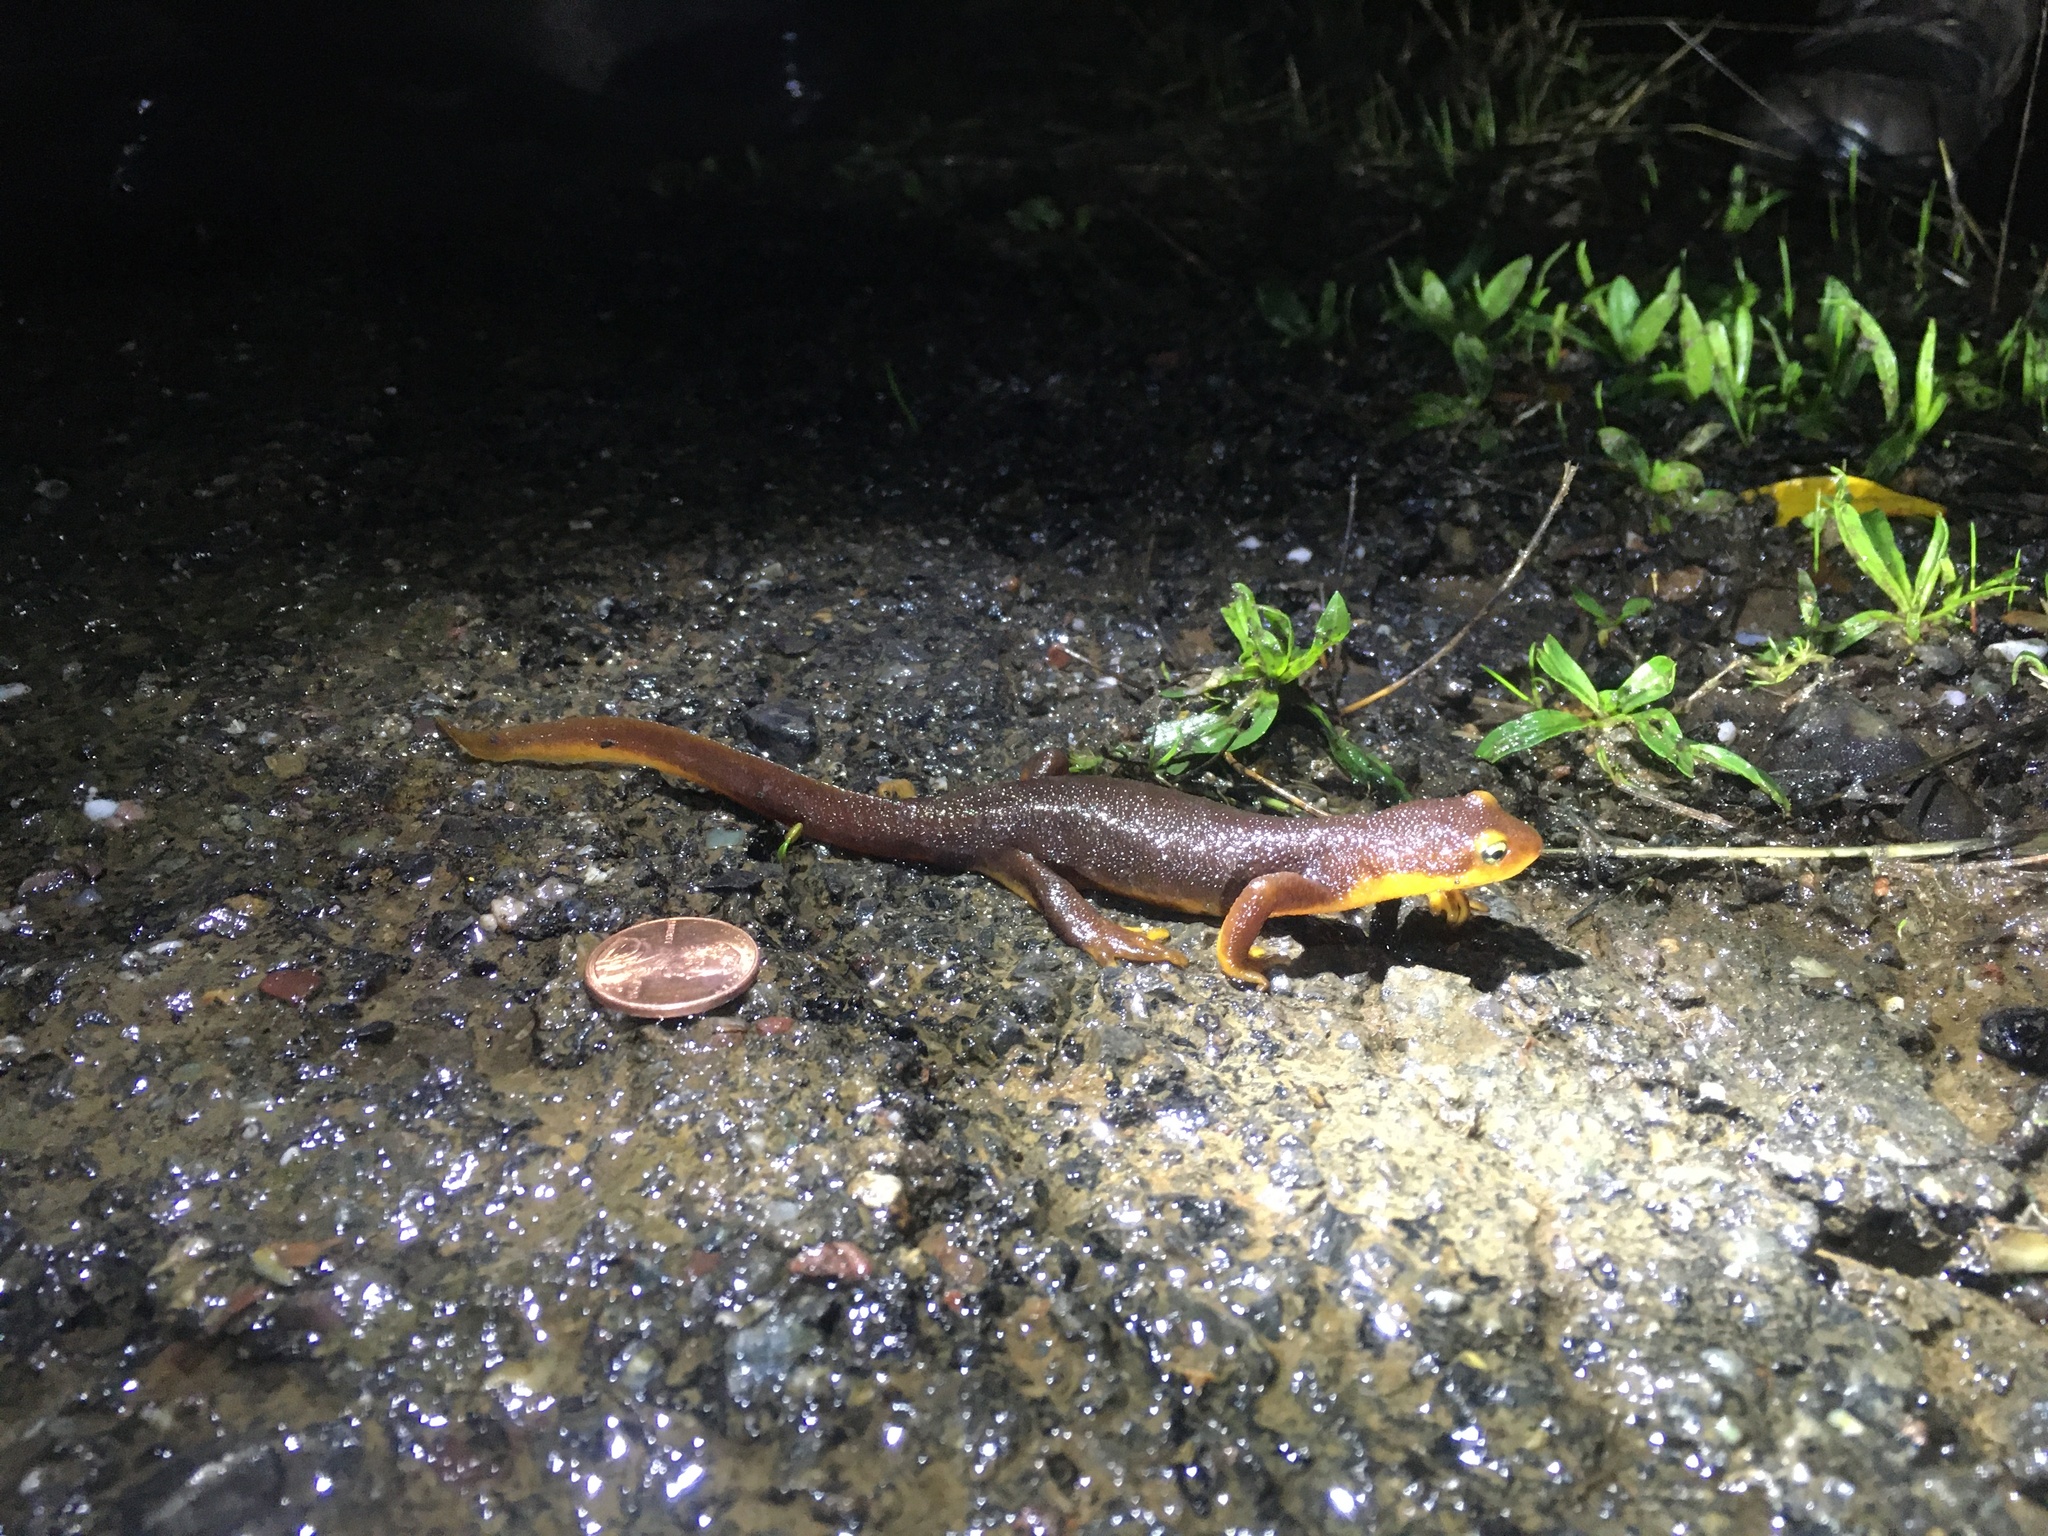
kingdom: Animalia
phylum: Chordata
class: Amphibia
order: Caudata
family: Salamandridae
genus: Taricha
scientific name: Taricha torosa
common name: California newt
